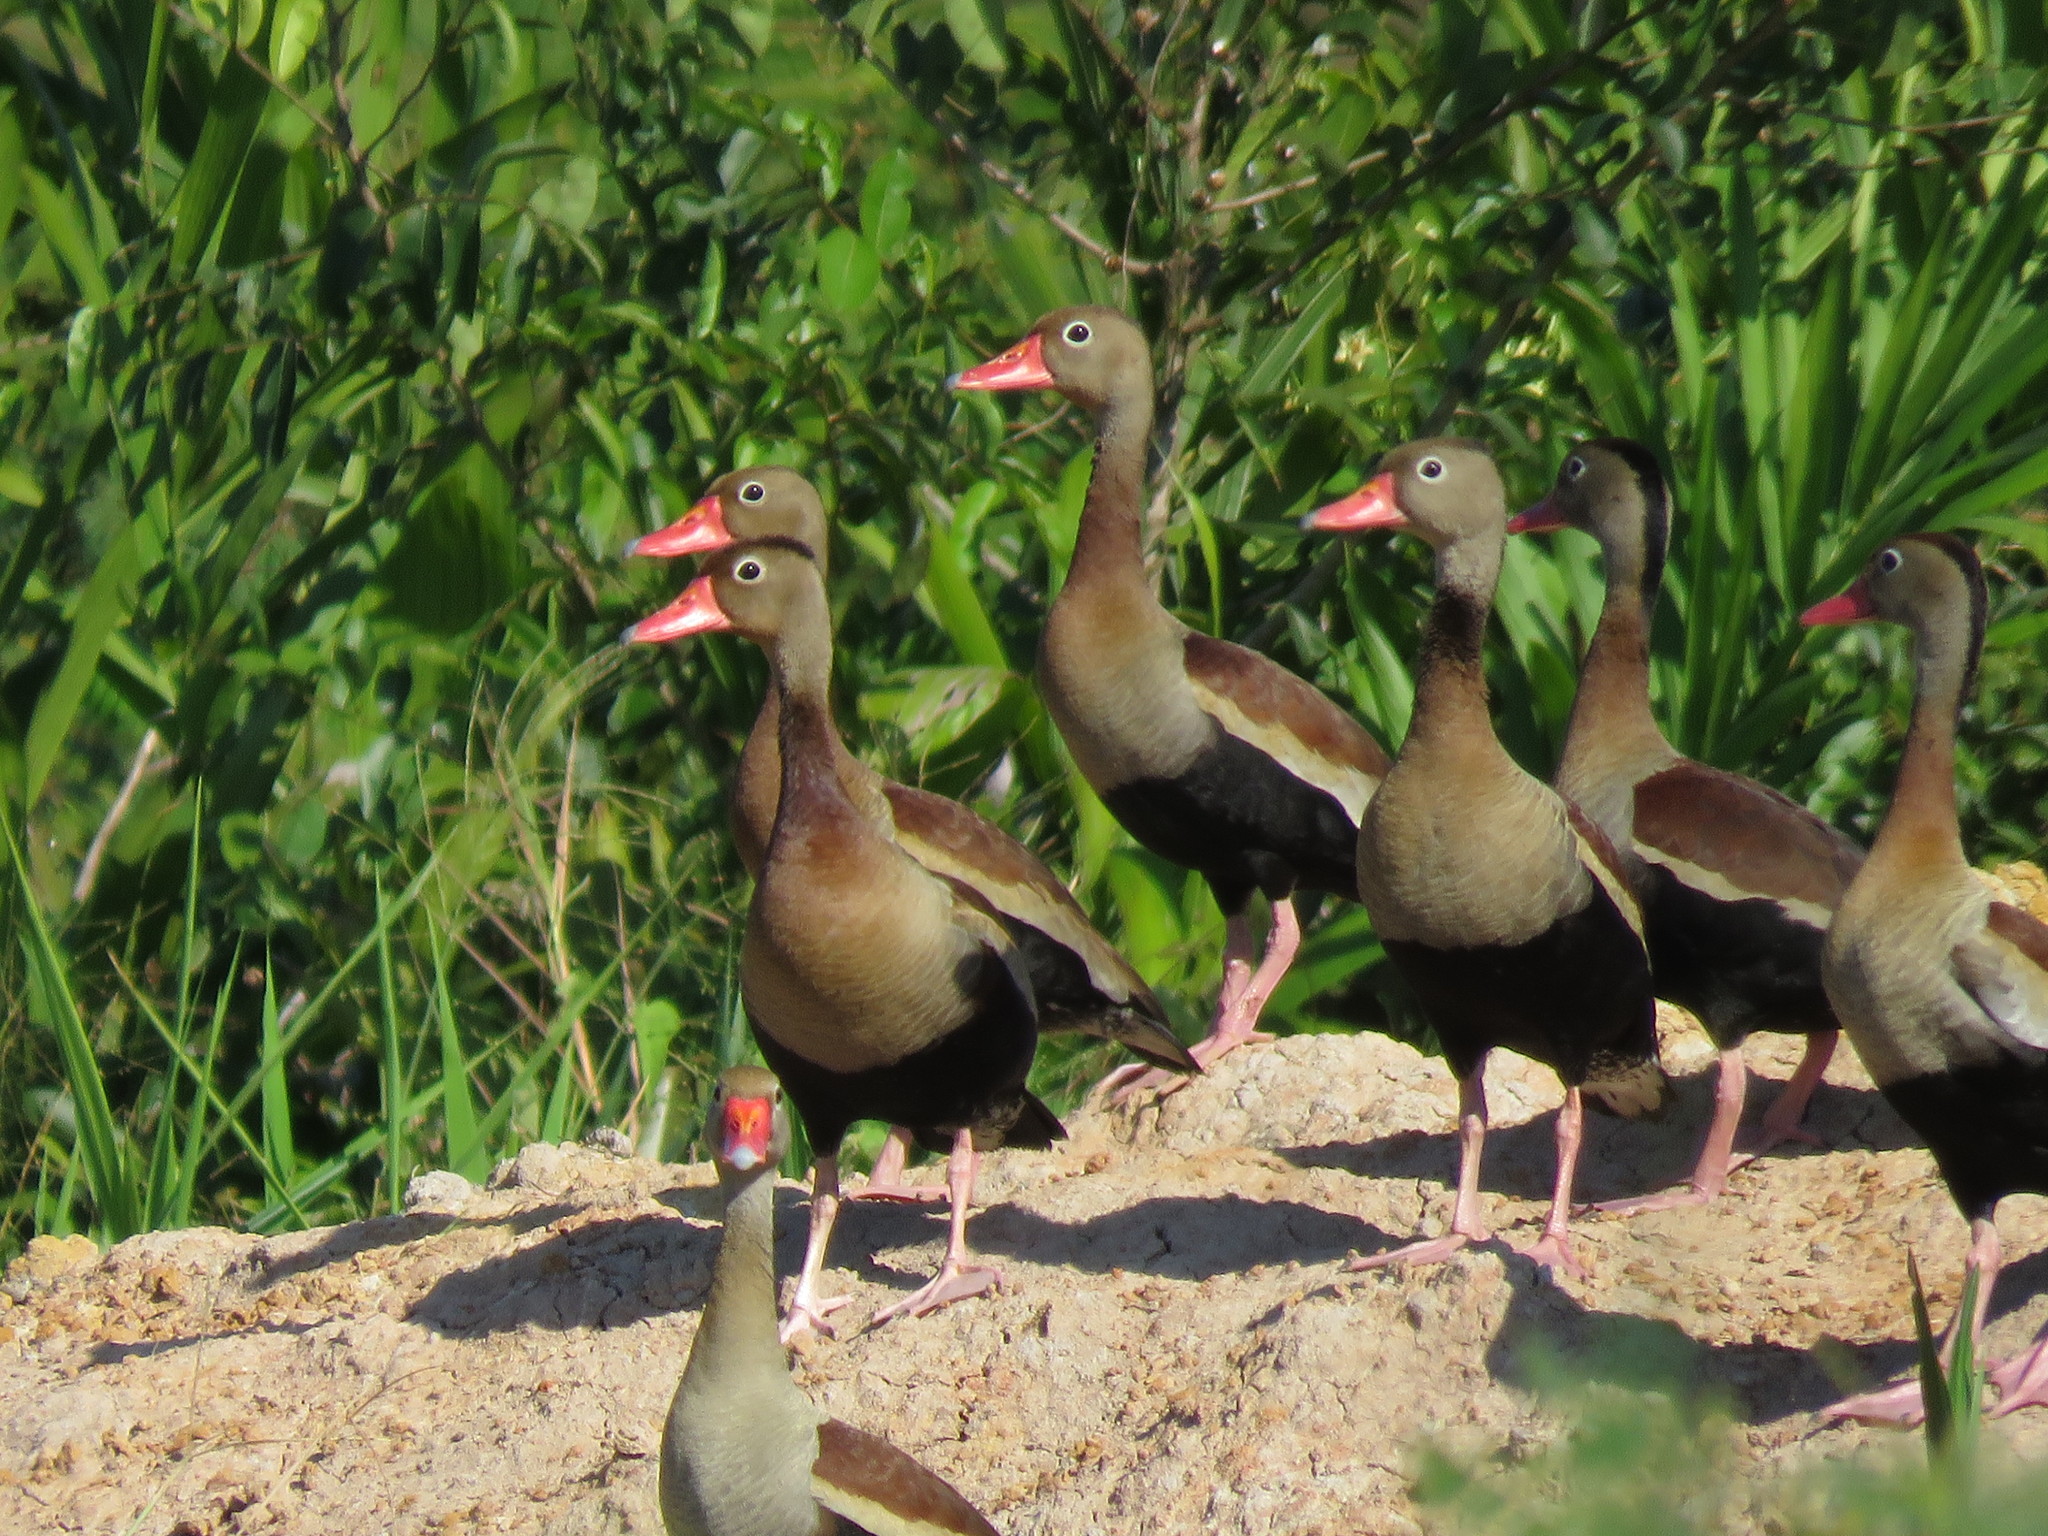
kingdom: Animalia
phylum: Chordata
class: Aves
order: Anseriformes
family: Anatidae
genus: Dendrocygna
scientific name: Dendrocygna autumnalis
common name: Black-bellied whistling duck
